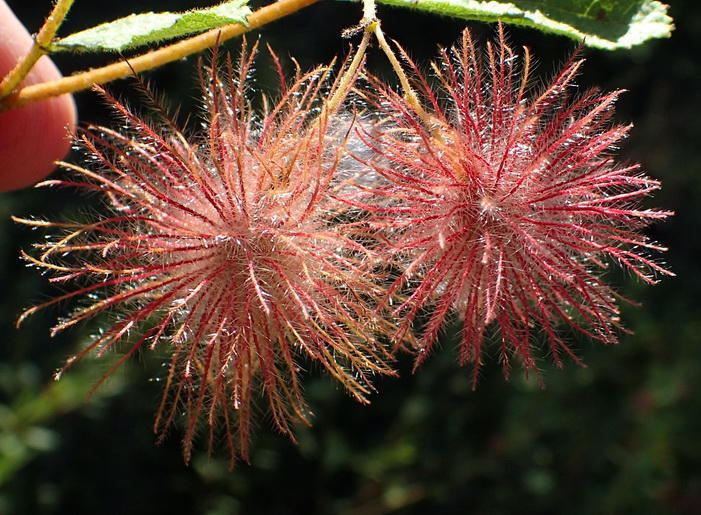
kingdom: Plantae
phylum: Tracheophyta
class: Magnoliopsida
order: Malvales
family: Malvaceae
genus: Triumfetta
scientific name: Triumfetta sonderi
